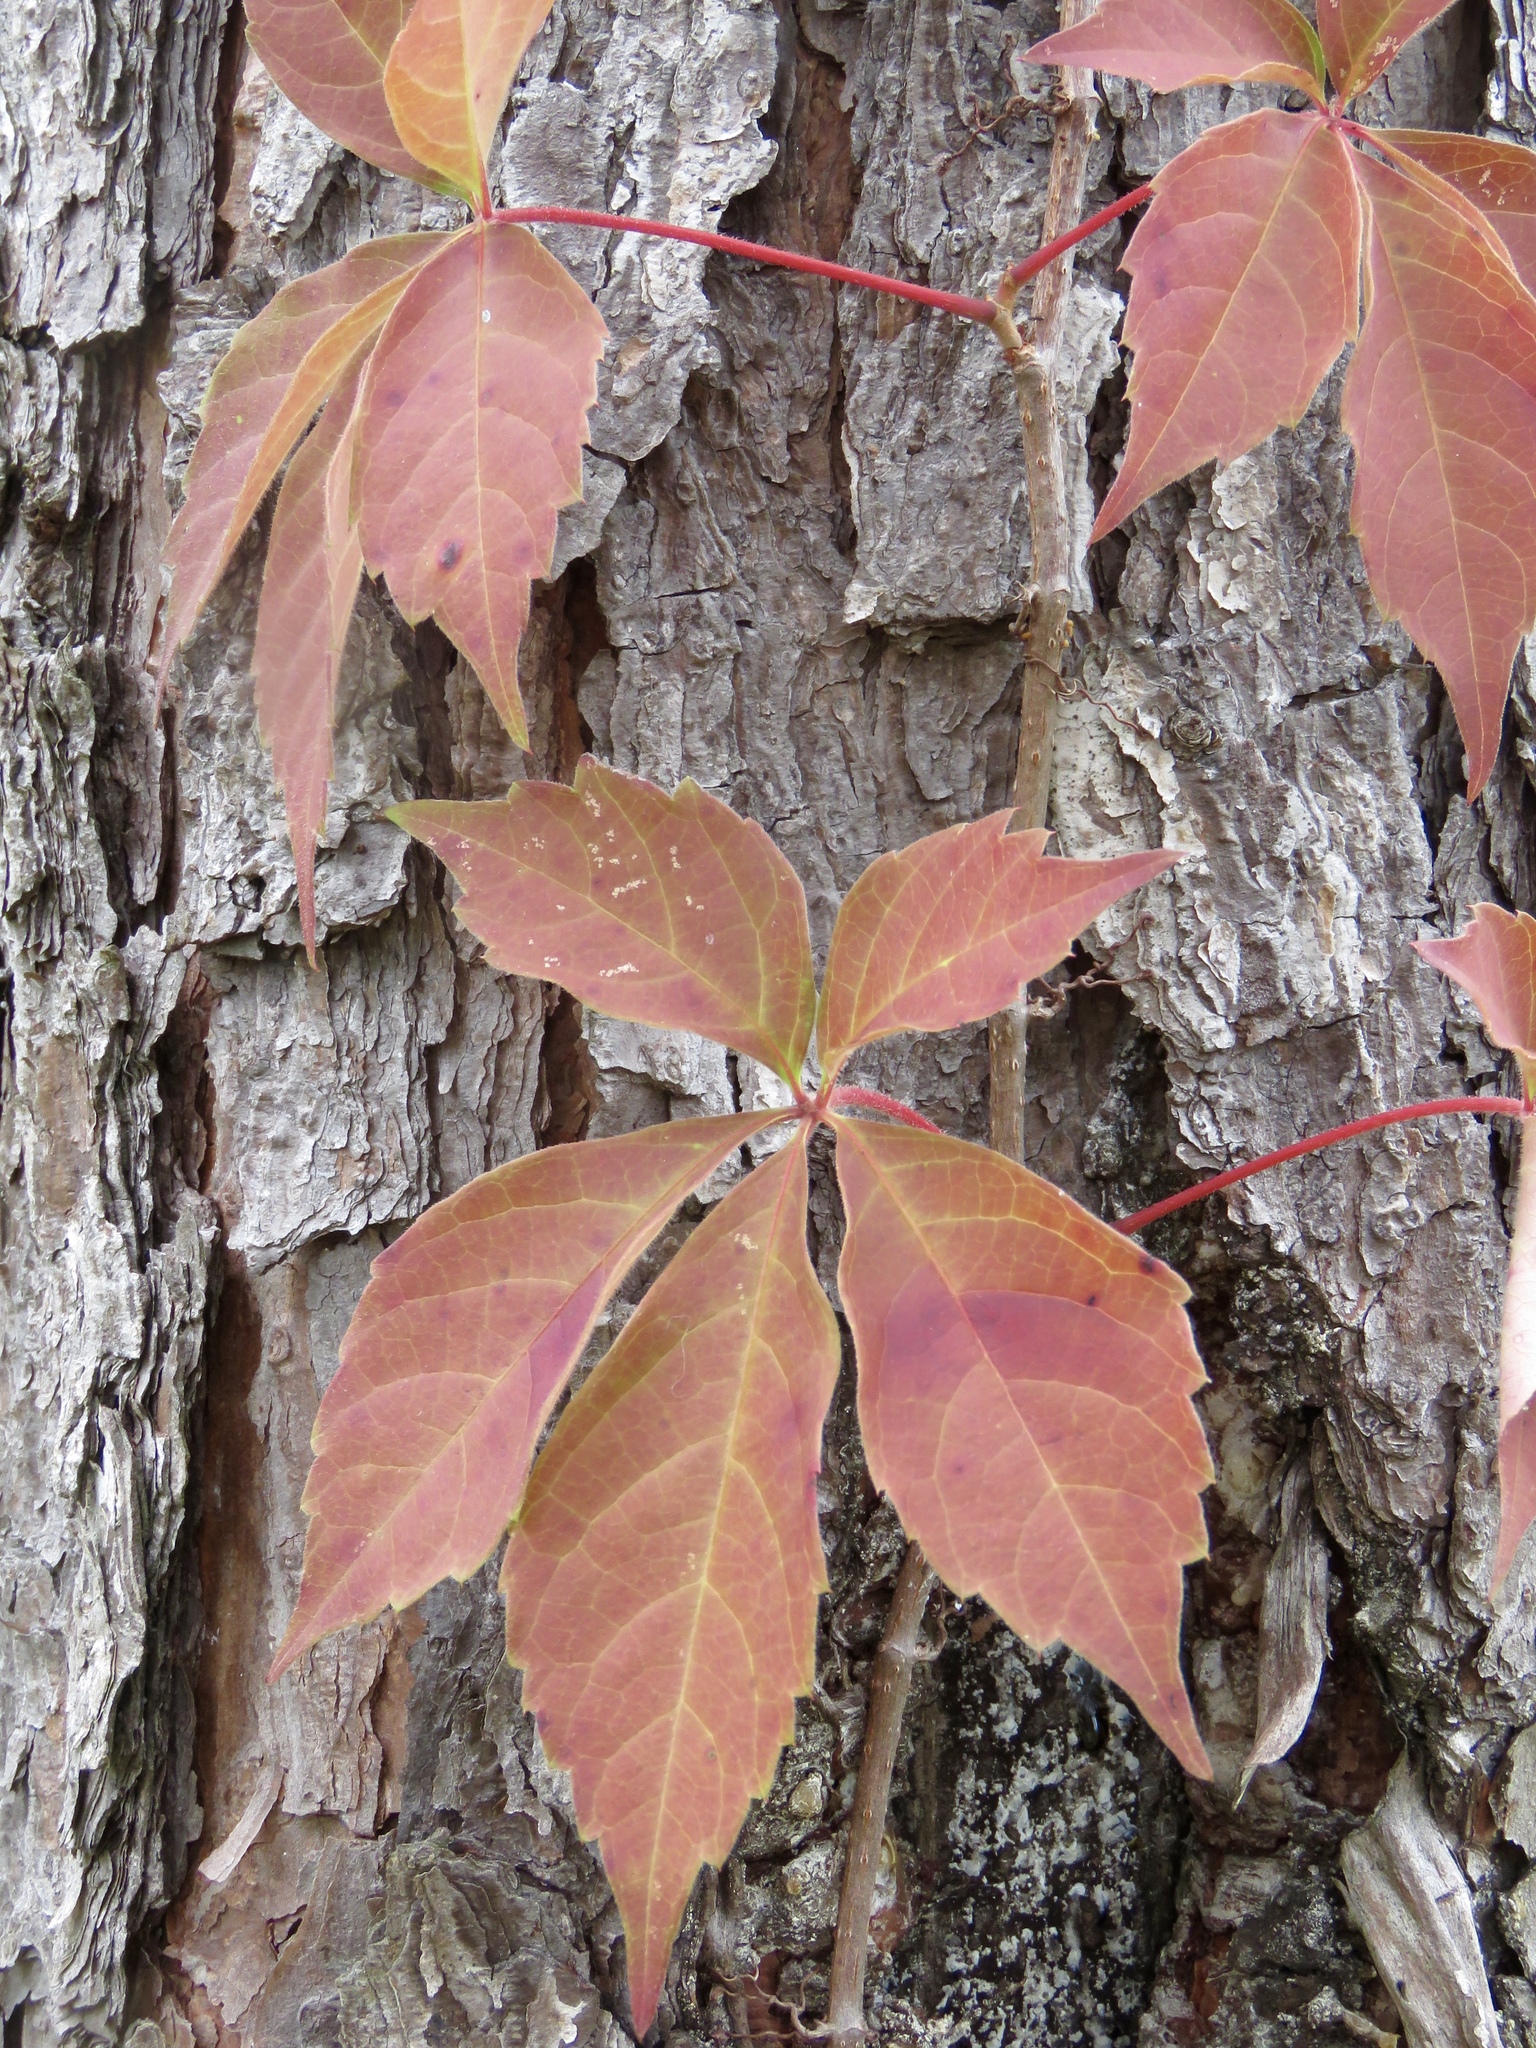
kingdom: Plantae
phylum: Tracheophyta
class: Magnoliopsida
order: Vitales
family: Vitaceae
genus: Parthenocissus
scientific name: Parthenocissus quinquefolia
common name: Virginia-creeper
